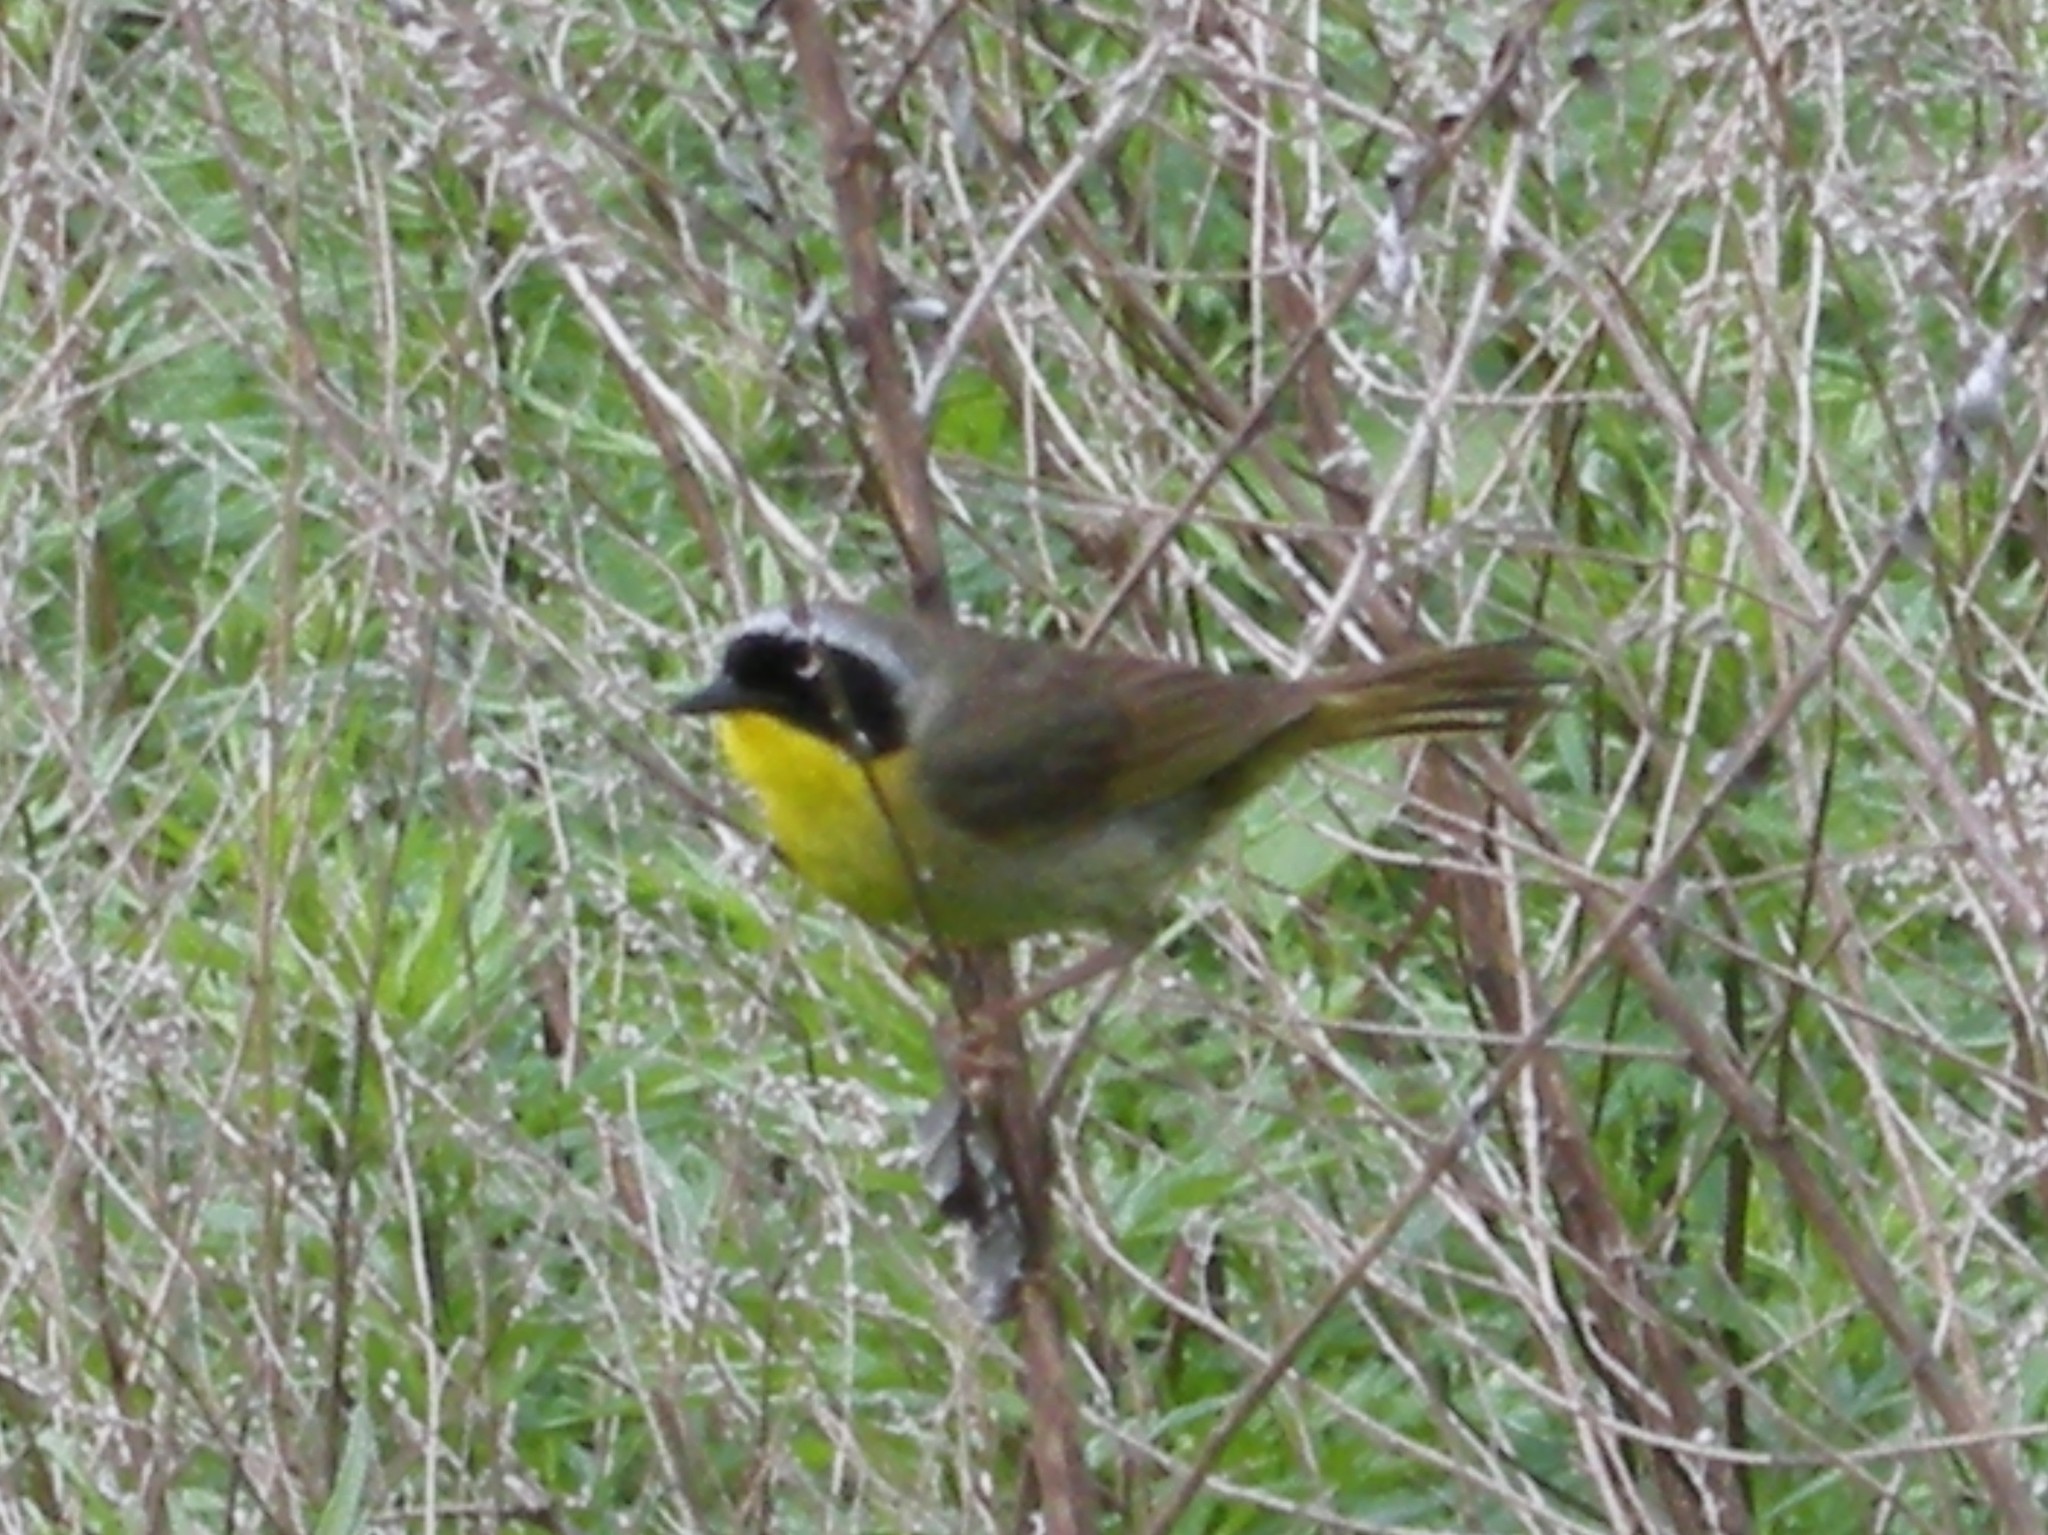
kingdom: Animalia
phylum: Chordata
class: Aves
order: Passeriformes
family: Parulidae
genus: Geothlypis
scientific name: Geothlypis trichas
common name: Common yellowthroat
